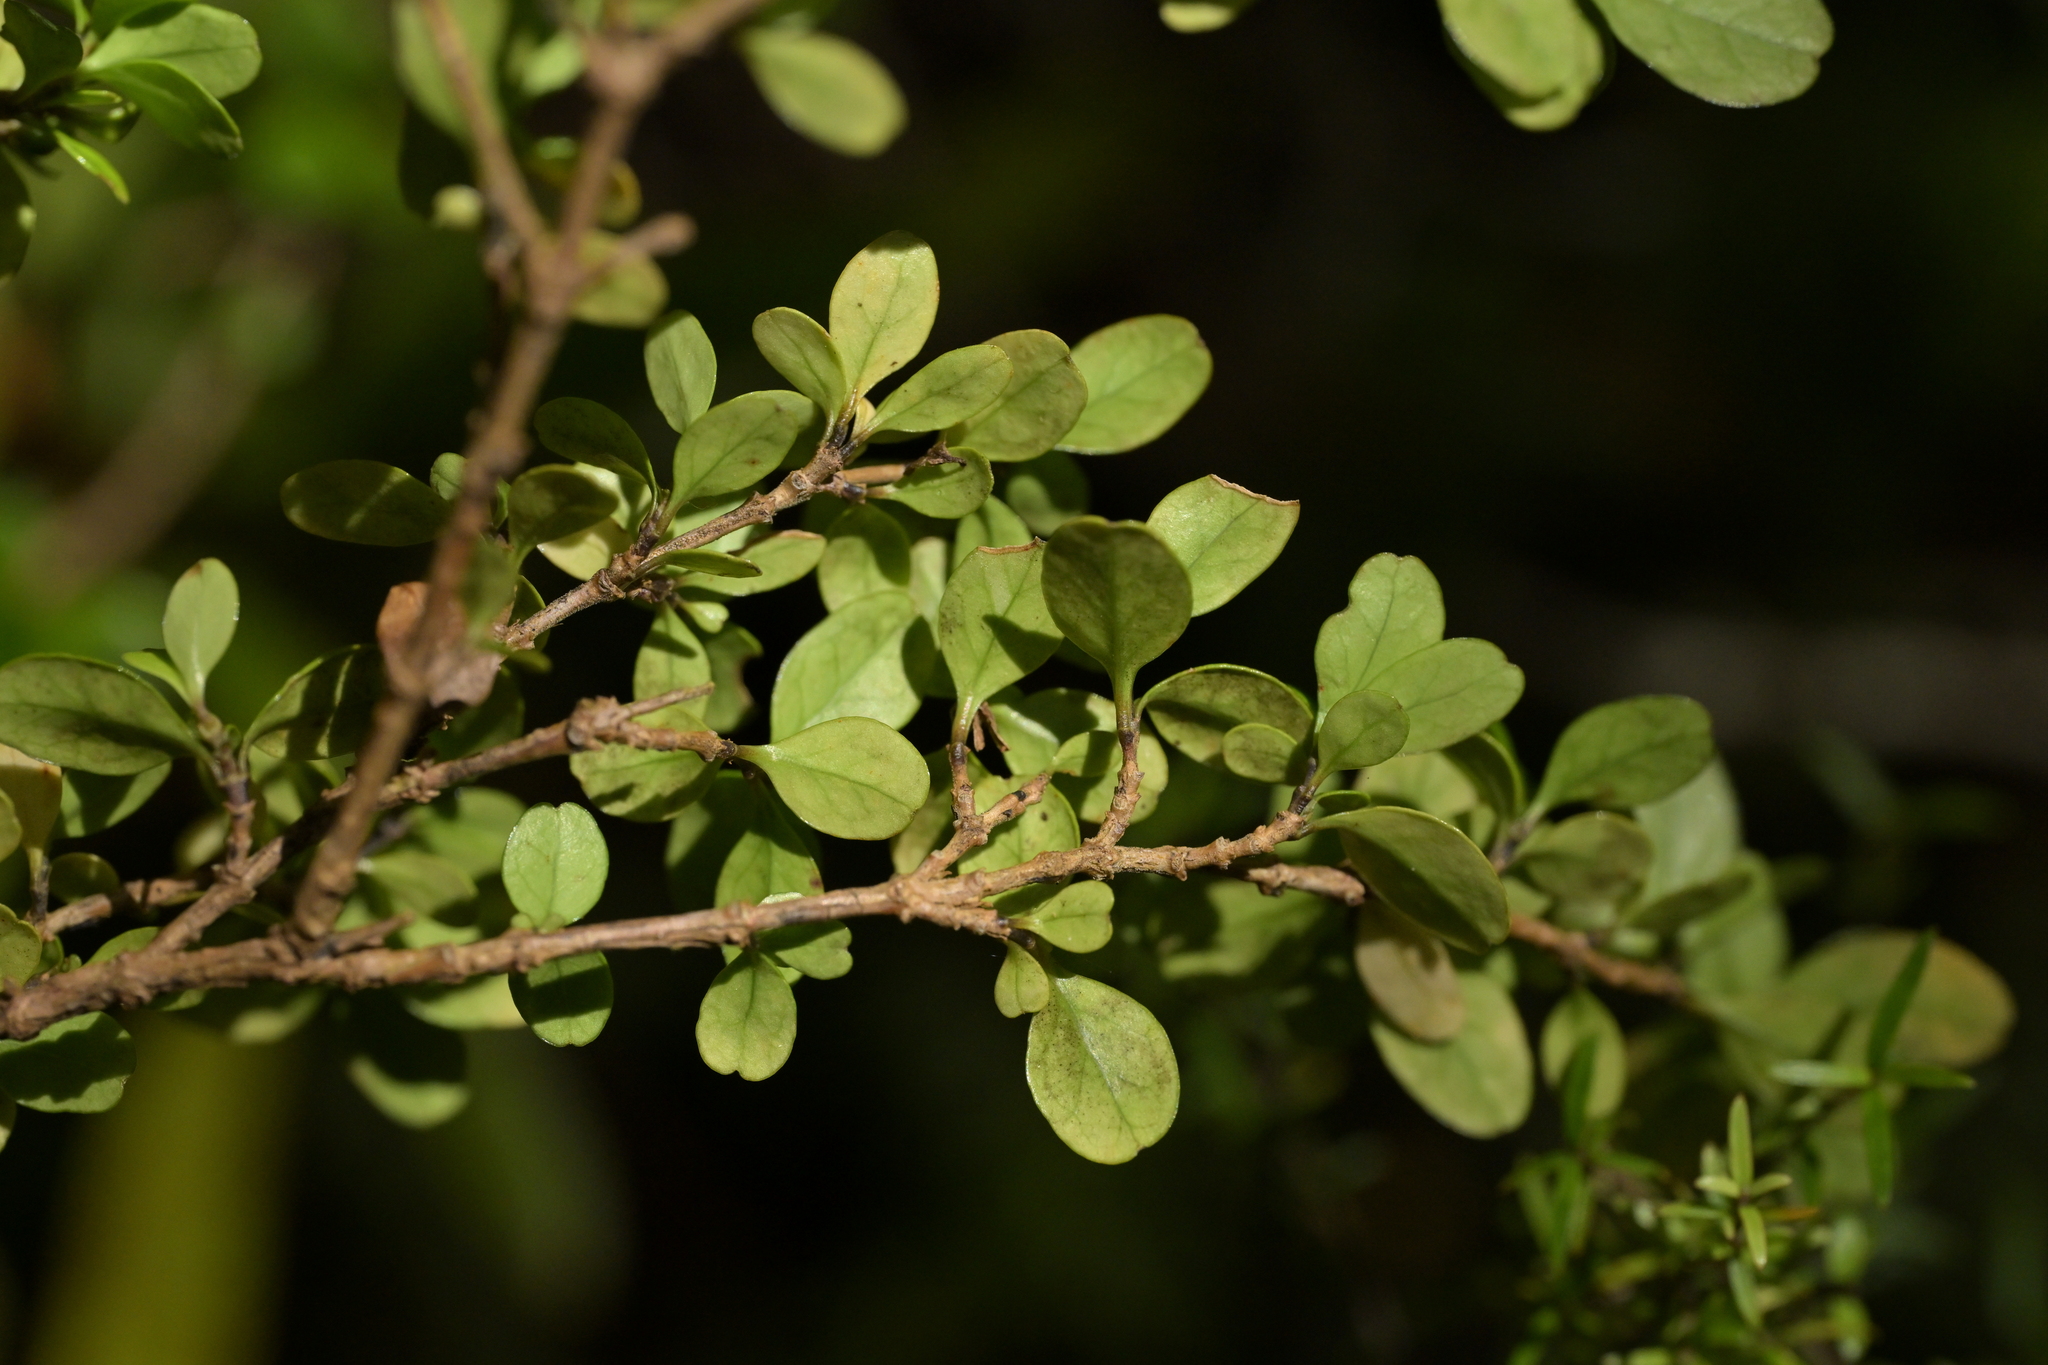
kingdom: Plantae
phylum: Tracheophyta
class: Magnoliopsida
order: Gentianales
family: Rubiaceae
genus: Coprosma
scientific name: Coprosma colensoi
